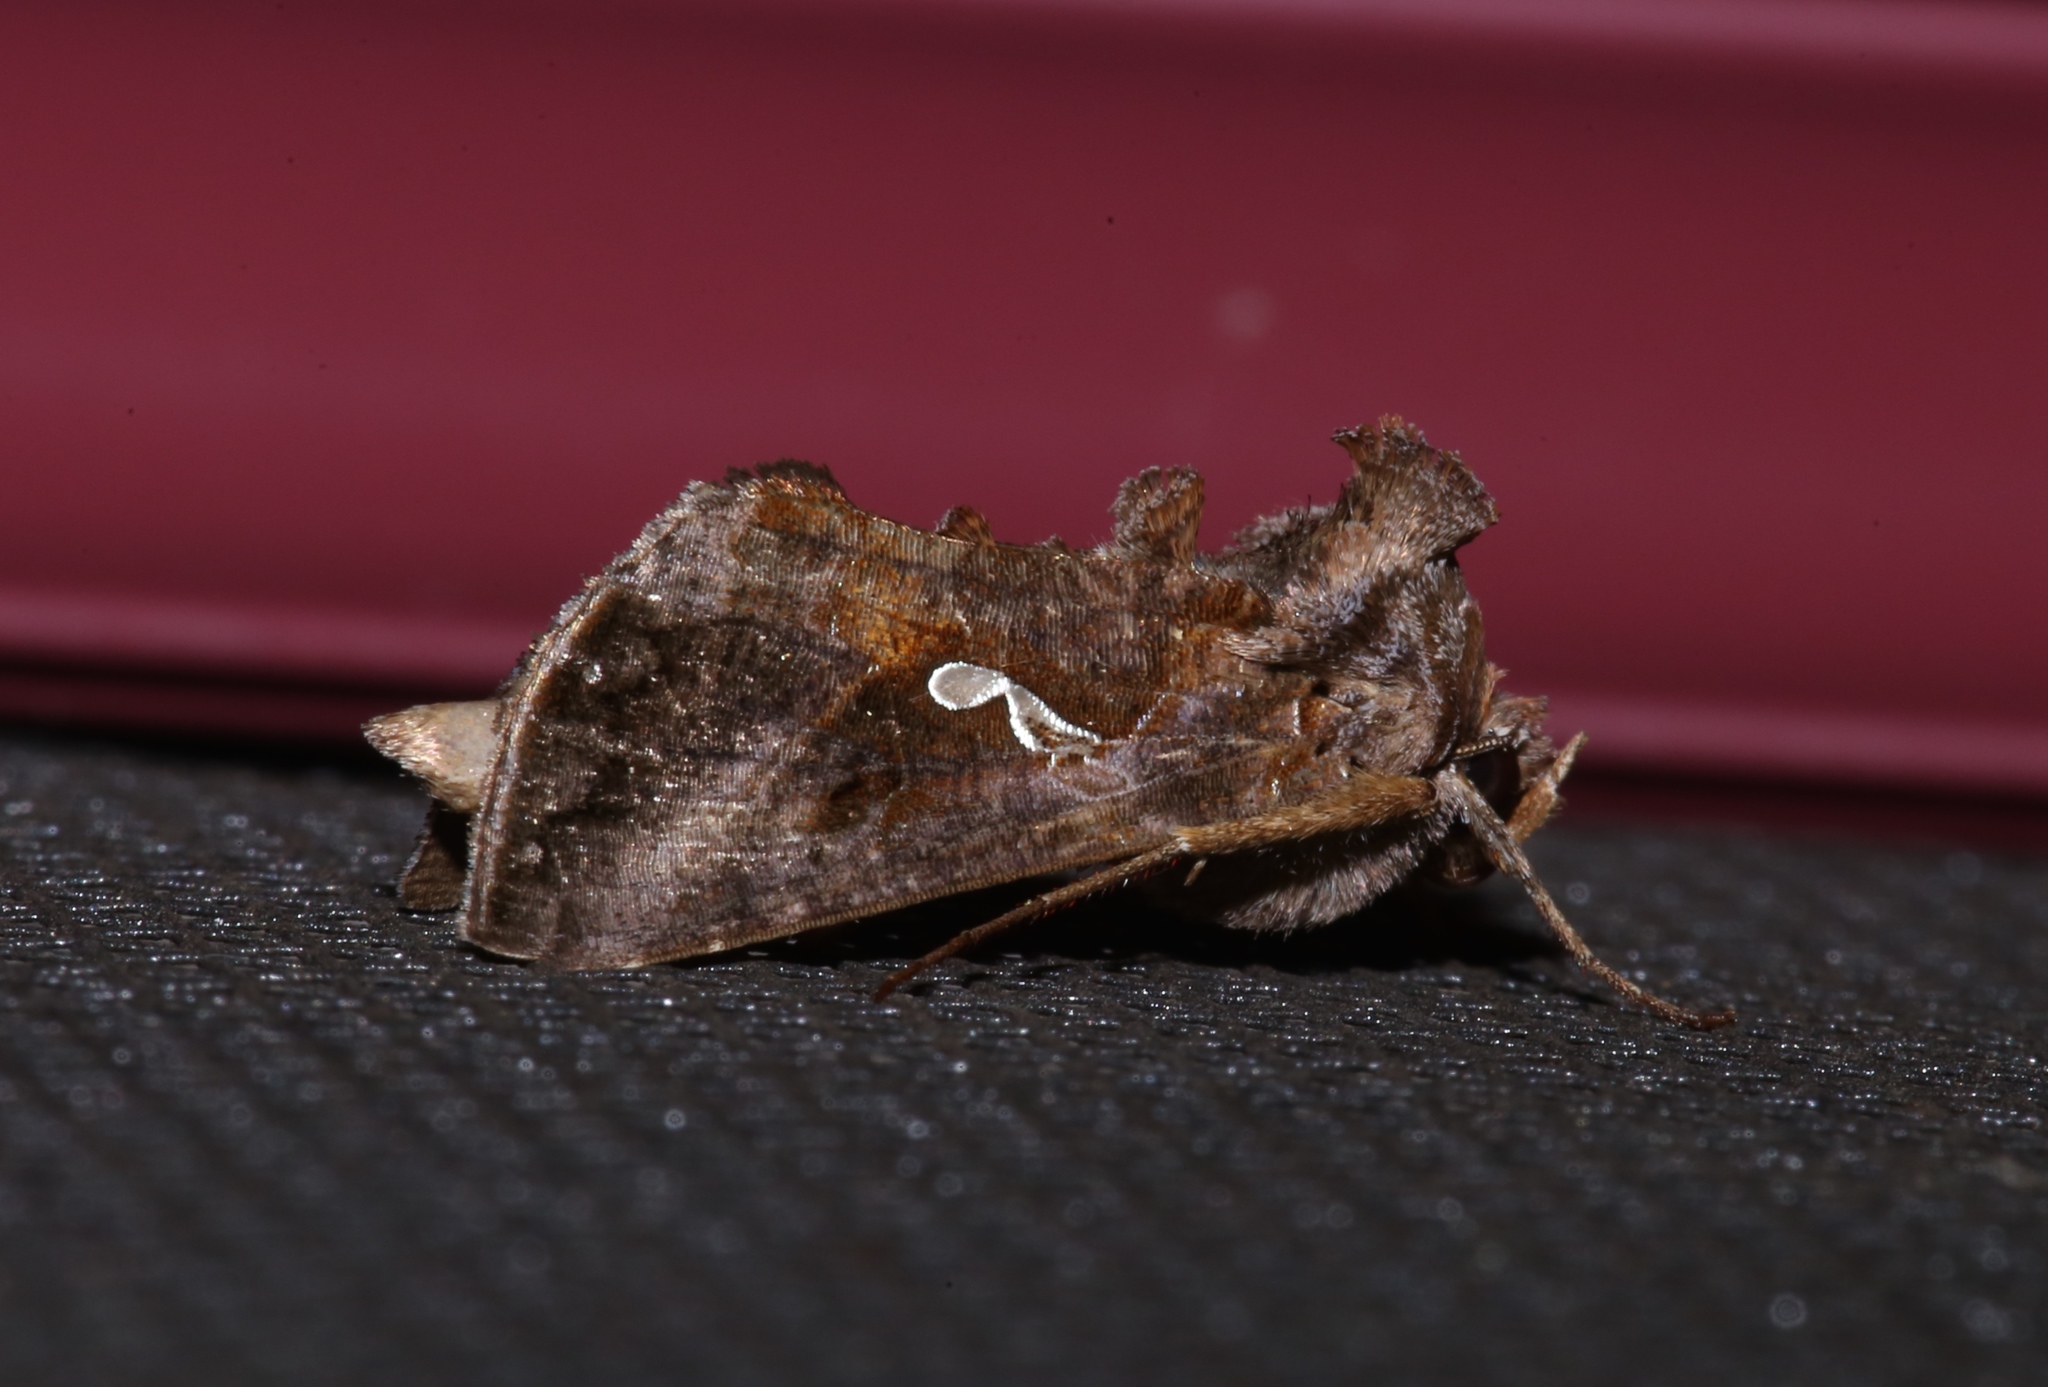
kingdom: Animalia
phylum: Arthropoda
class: Insecta
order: Lepidoptera
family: Noctuidae
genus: Autographa
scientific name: Autographa precationis
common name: Common looper moth
